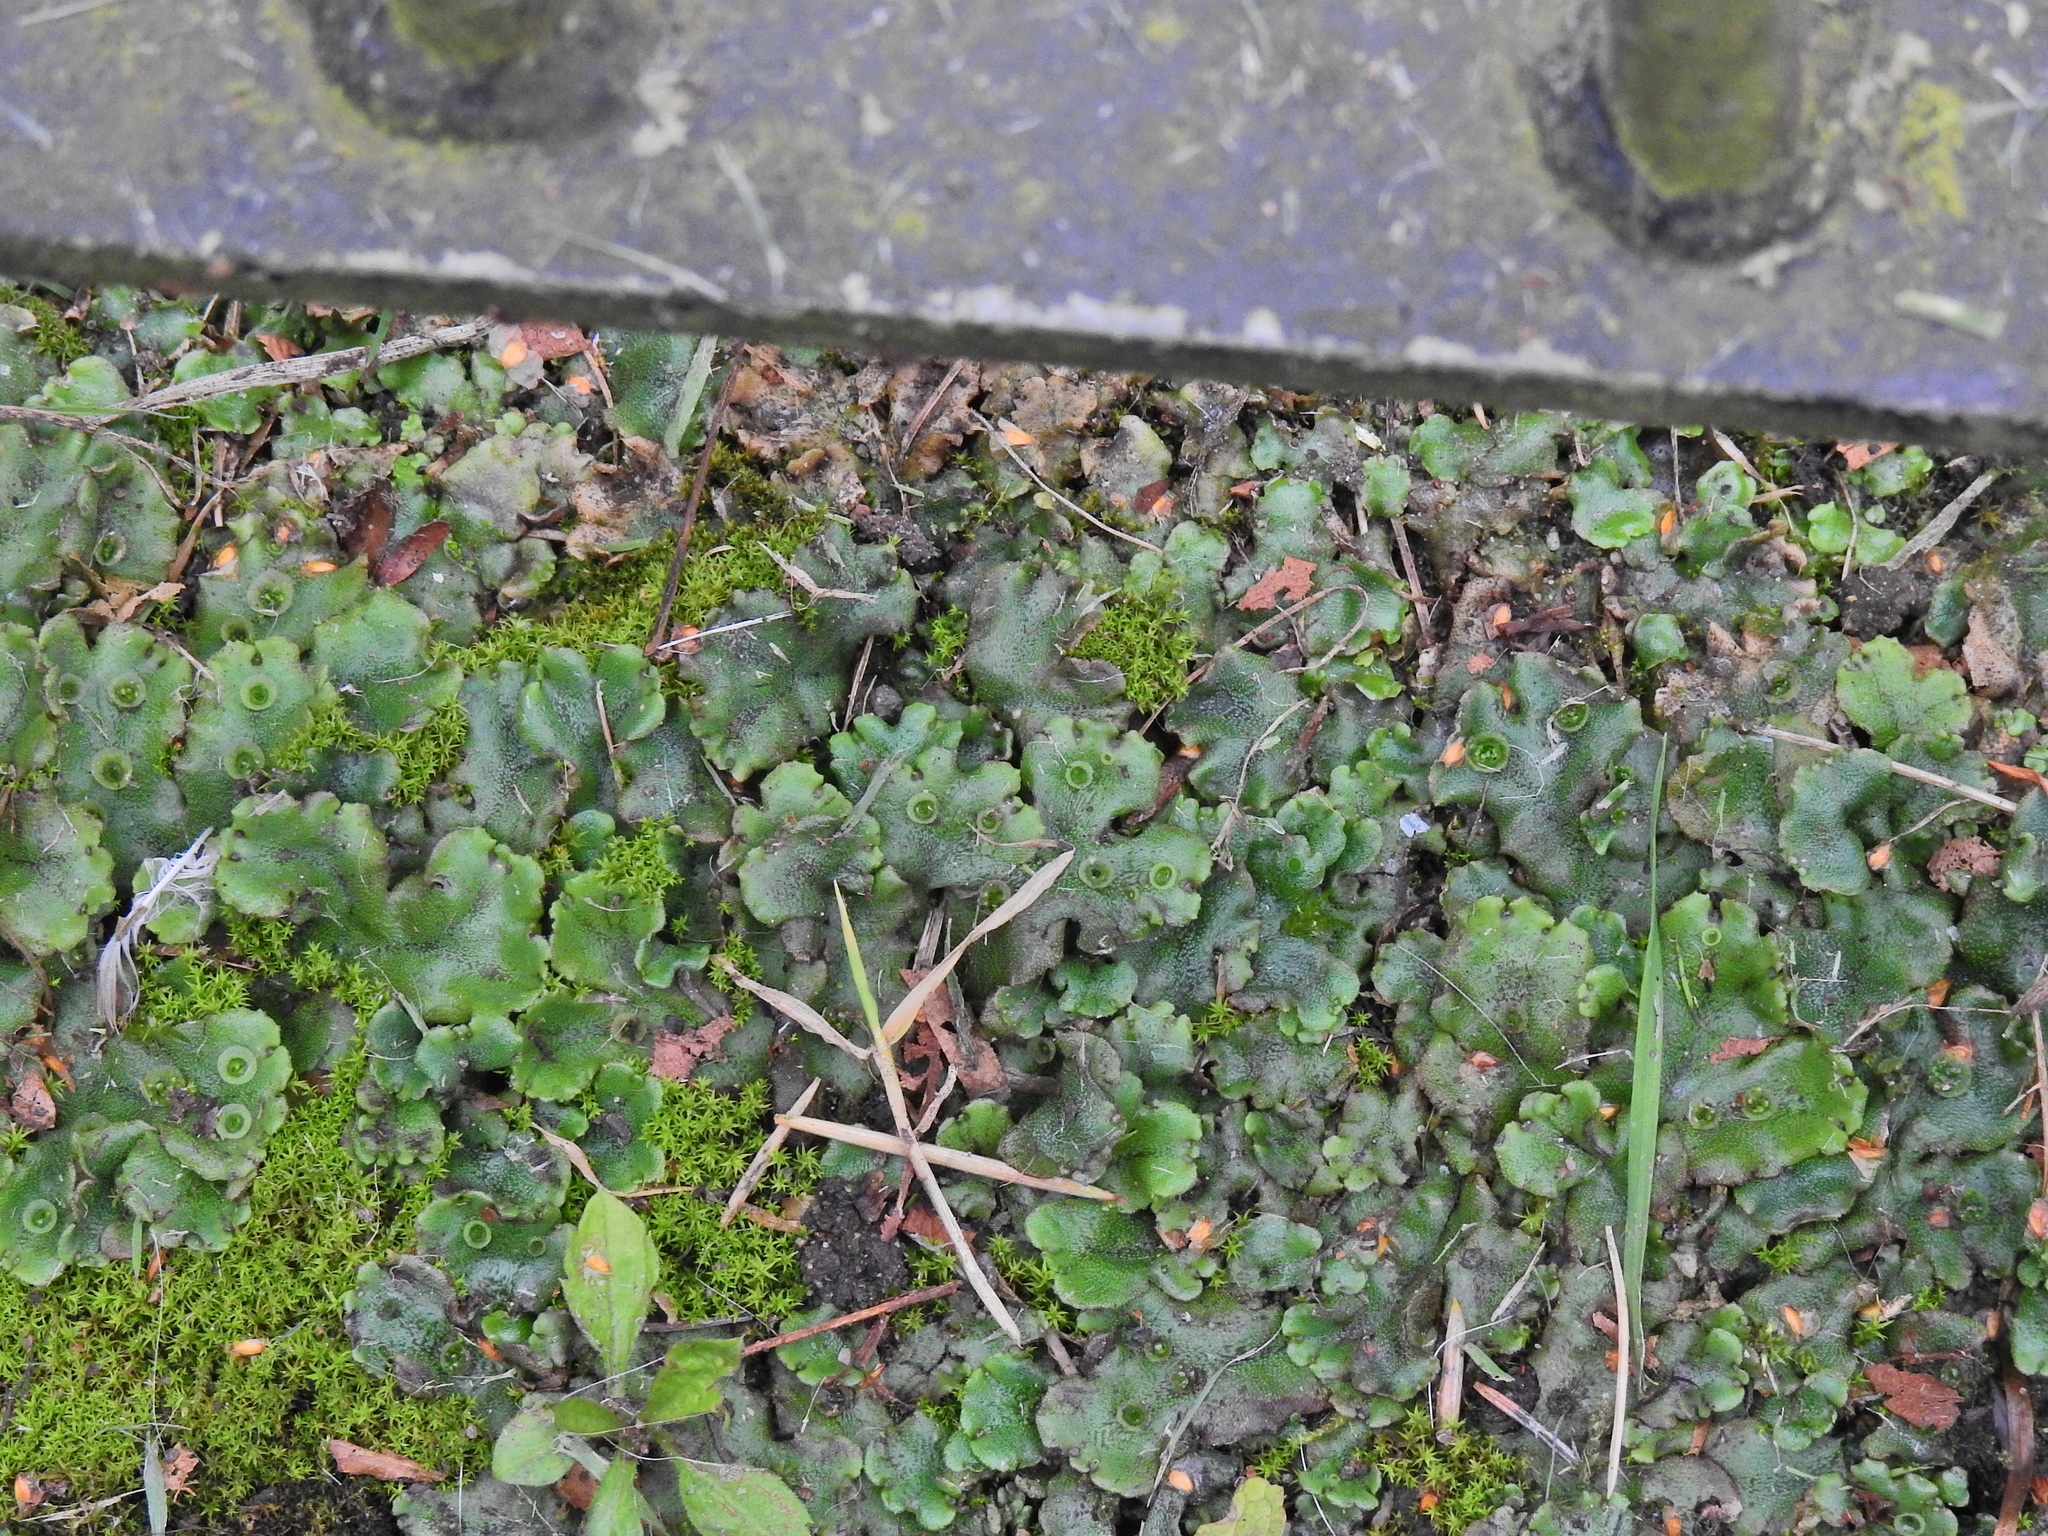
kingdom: Plantae
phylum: Marchantiophyta
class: Marchantiopsida
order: Marchantiales
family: Marchantiaceae
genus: Marchantia
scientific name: Marchantia polymorpha
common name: Common liverwort
